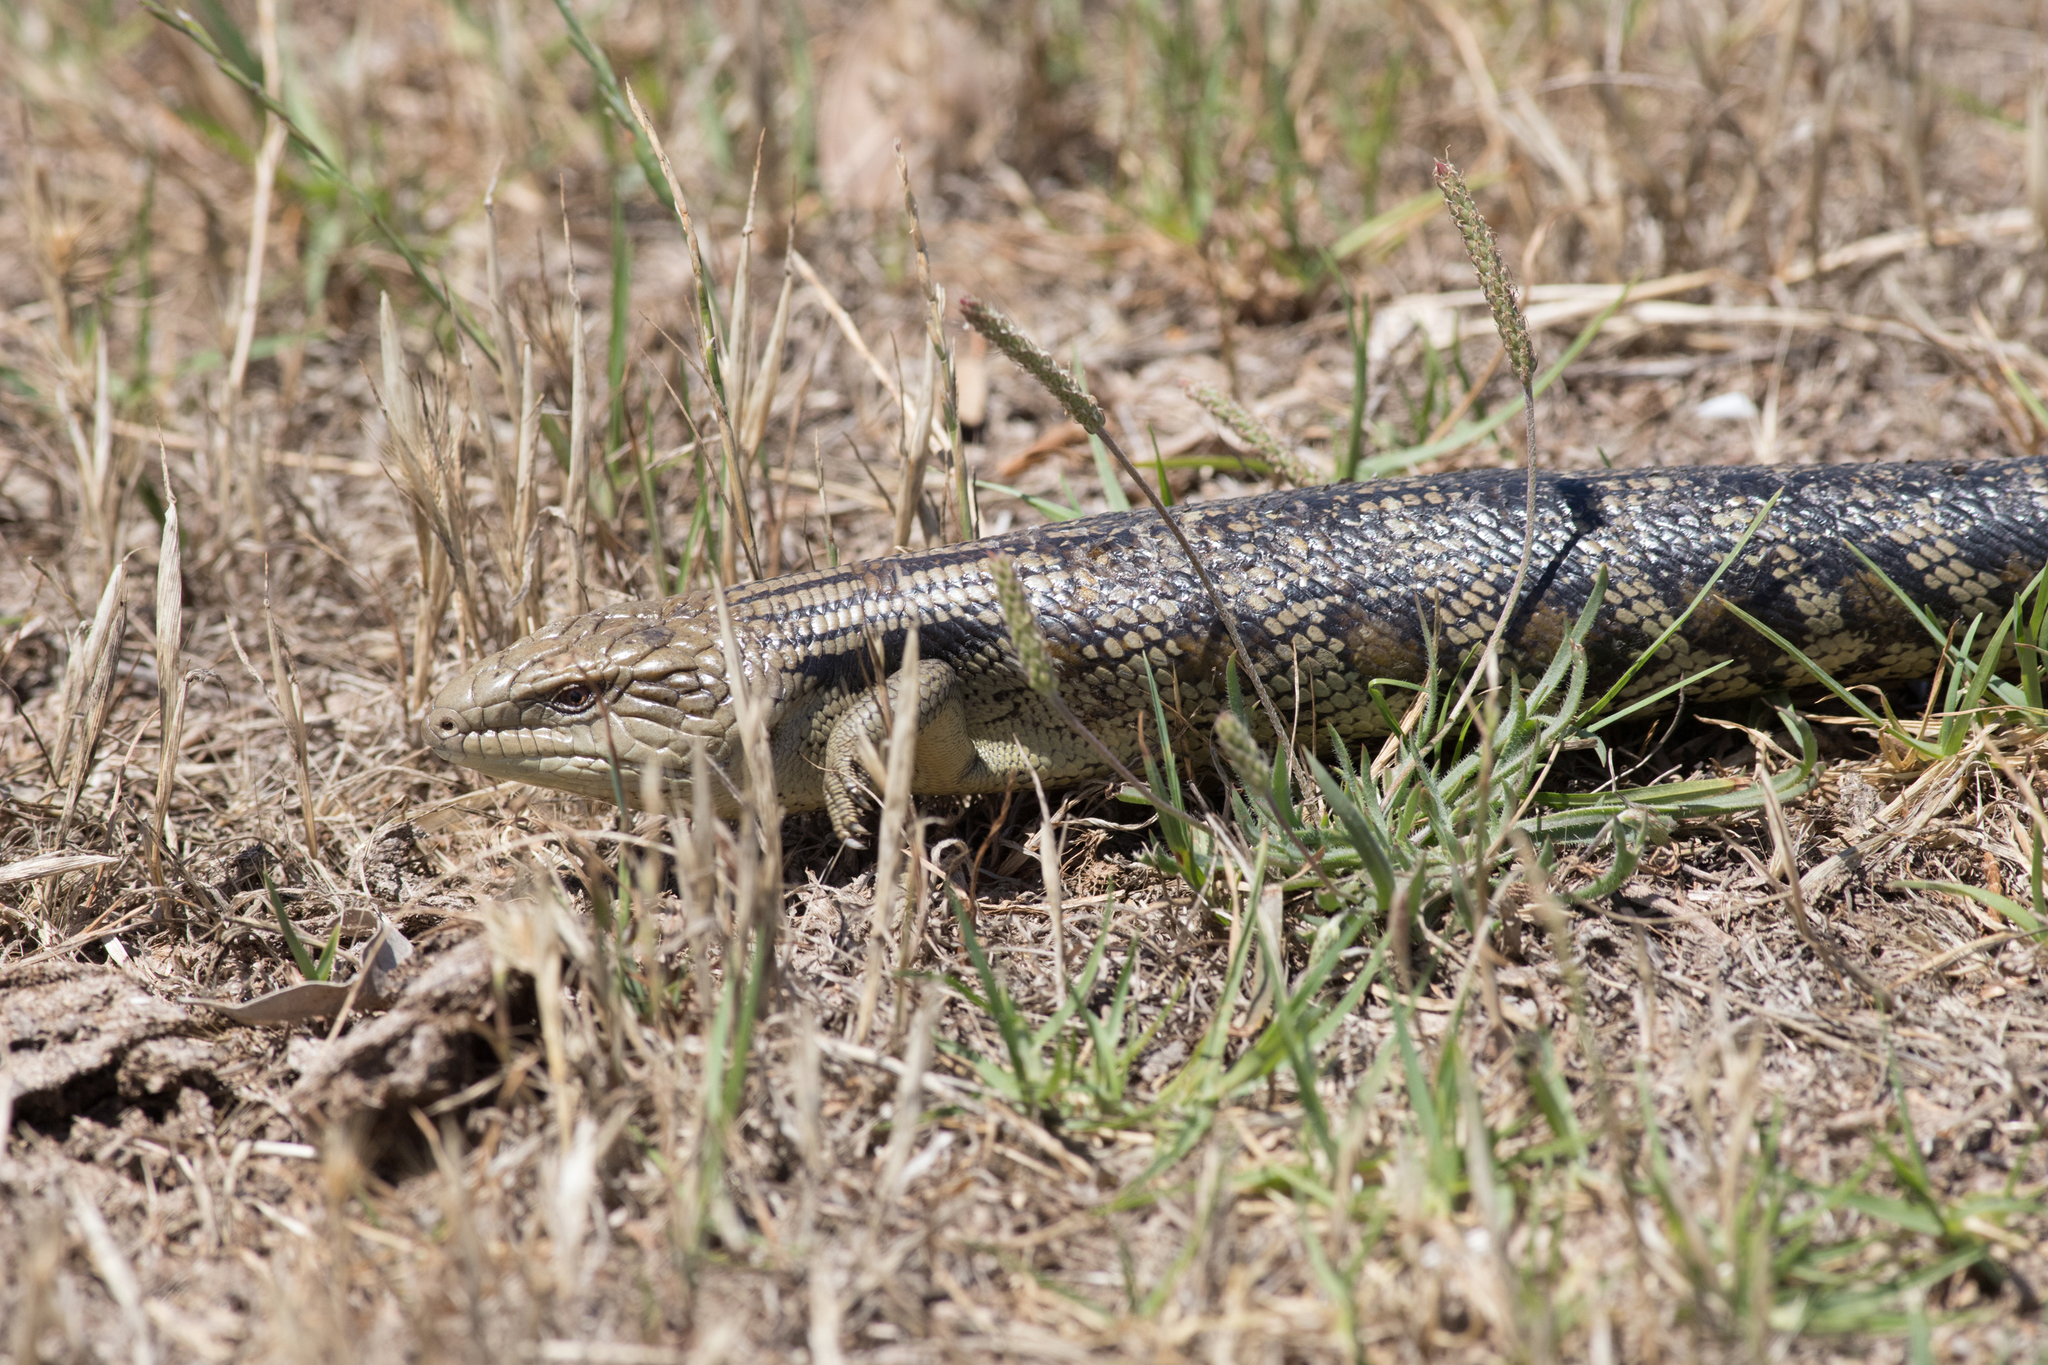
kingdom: Animalia
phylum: Chordata
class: Squamata
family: Scincidae
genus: Tiliqua
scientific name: Tiliqua scincoides
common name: Common bluetongue
